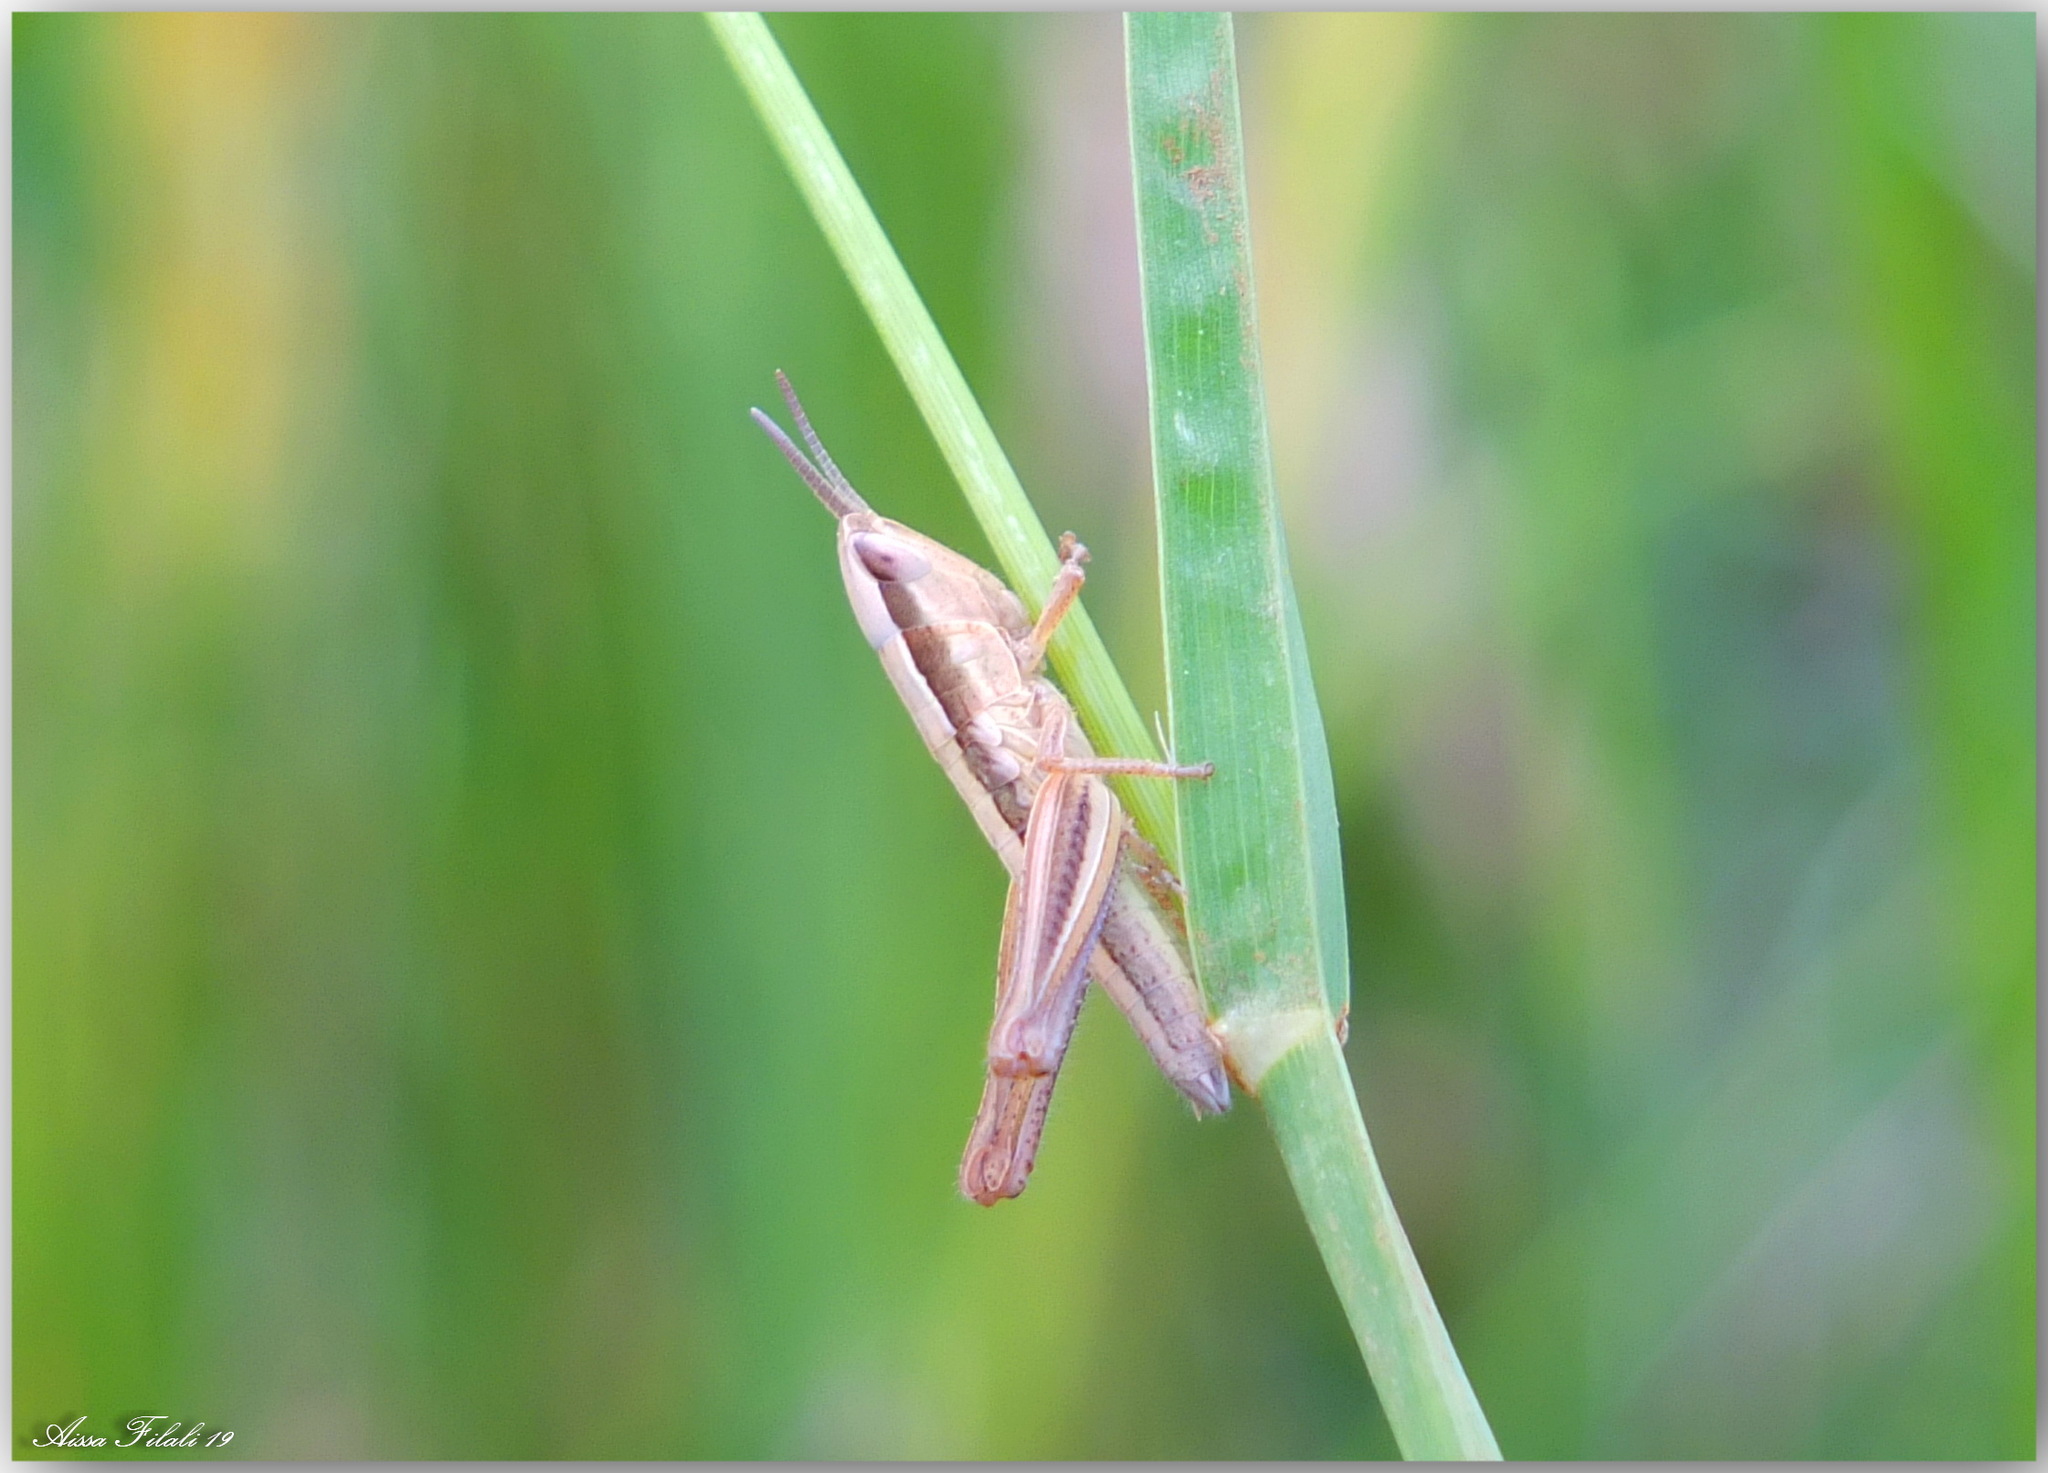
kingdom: Animalia
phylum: Arthropoda
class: Insecta
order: Orthoptera
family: Acrididae
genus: Euchorthippus
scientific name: Euchorthippus albolineatus
